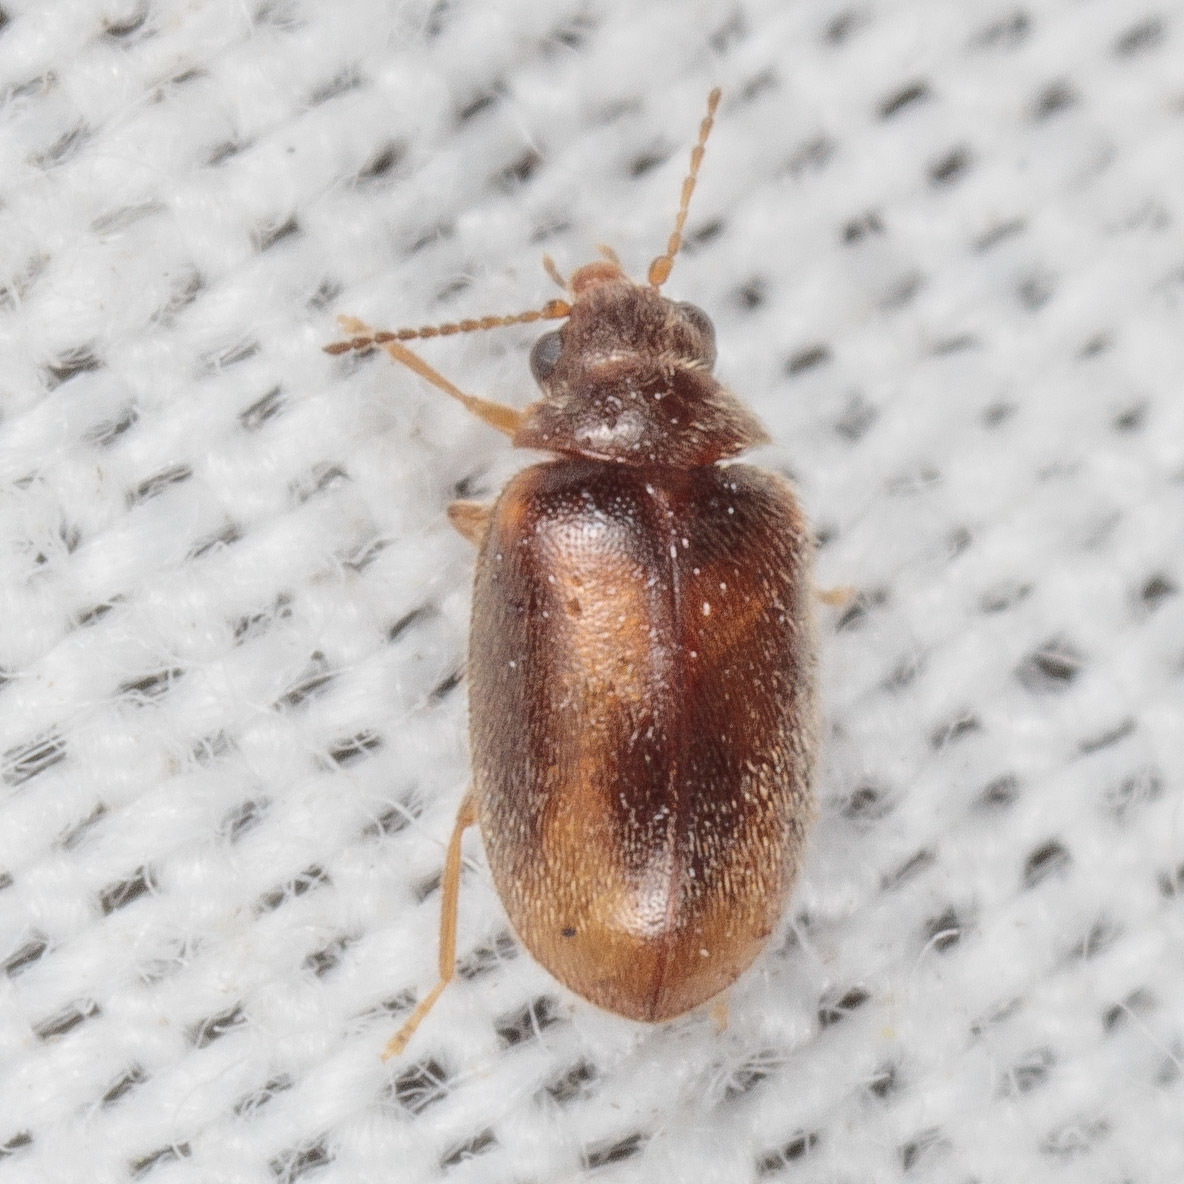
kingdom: Animalia
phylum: Arthropoda
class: Insecta
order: Coleoptera
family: Scirtidae
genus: Contacyphon
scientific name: Contacyphon
